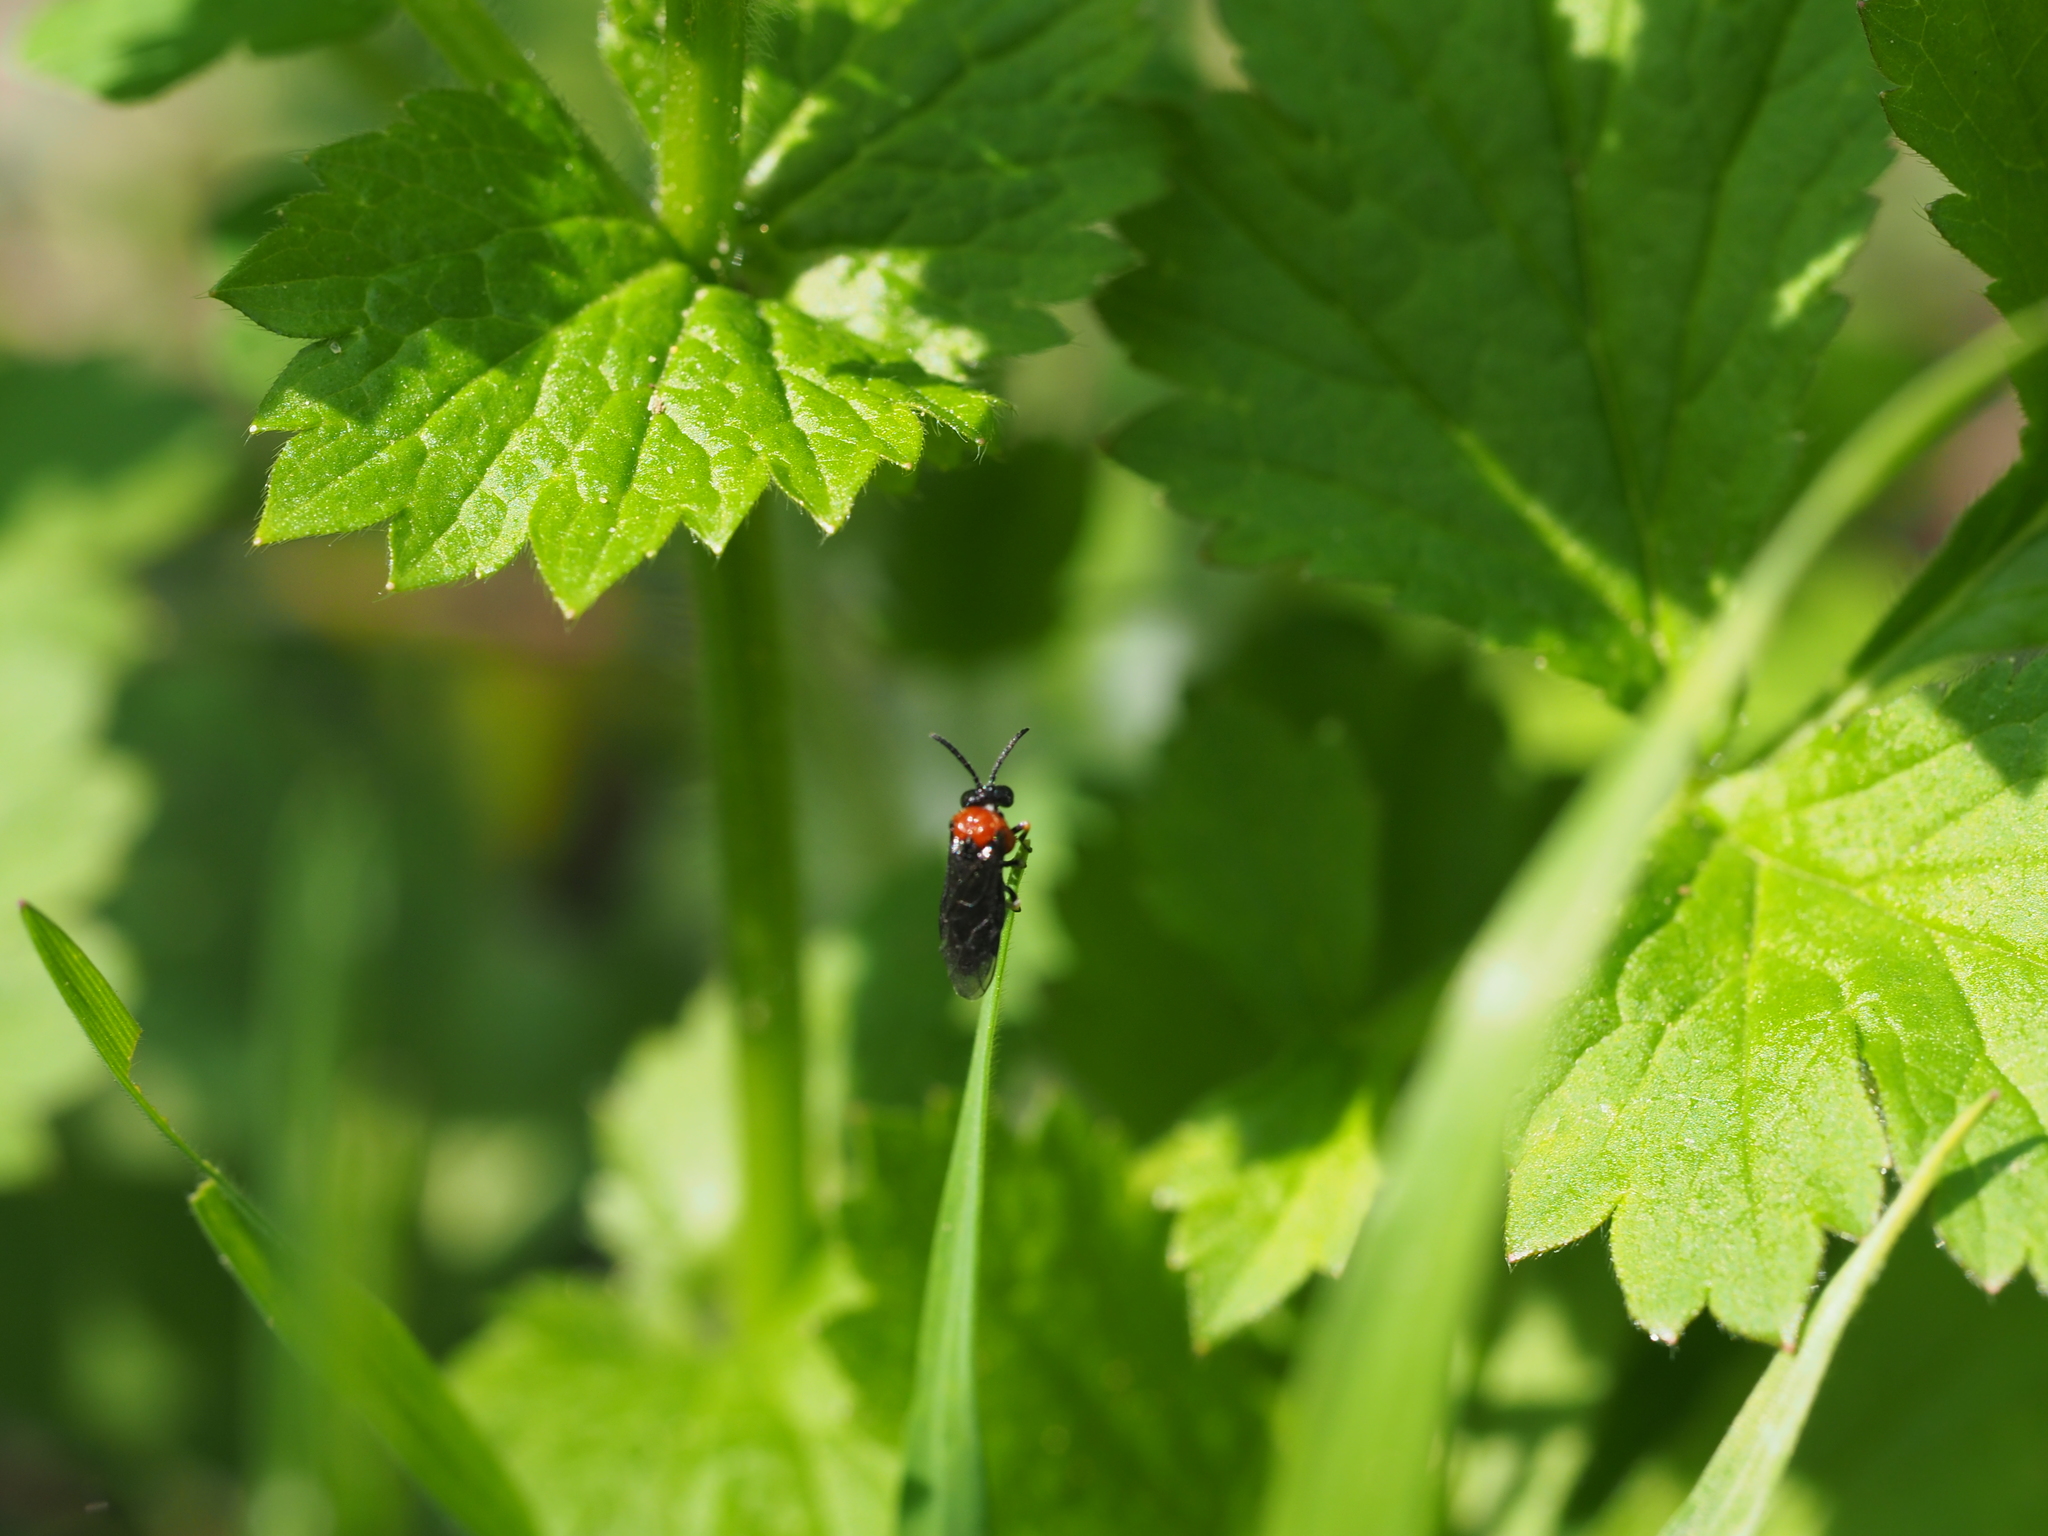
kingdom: Animalia
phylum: Arthropoda
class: Insecta
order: Hymenoptera
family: Tenthredinidae
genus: Eutomostethus
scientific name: Eutomostethus ephippium
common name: Tenthredid wasp
